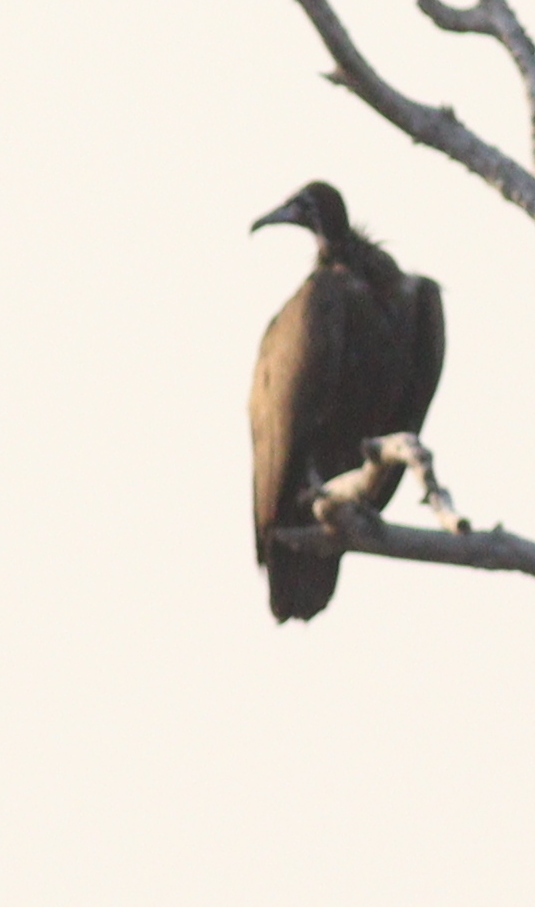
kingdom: Animalia
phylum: Chordata
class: Aves
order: Accipitriformes
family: Accipitridae
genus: Necrosyrtes
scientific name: Necrosyrtes monachus
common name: Hooded vulture
